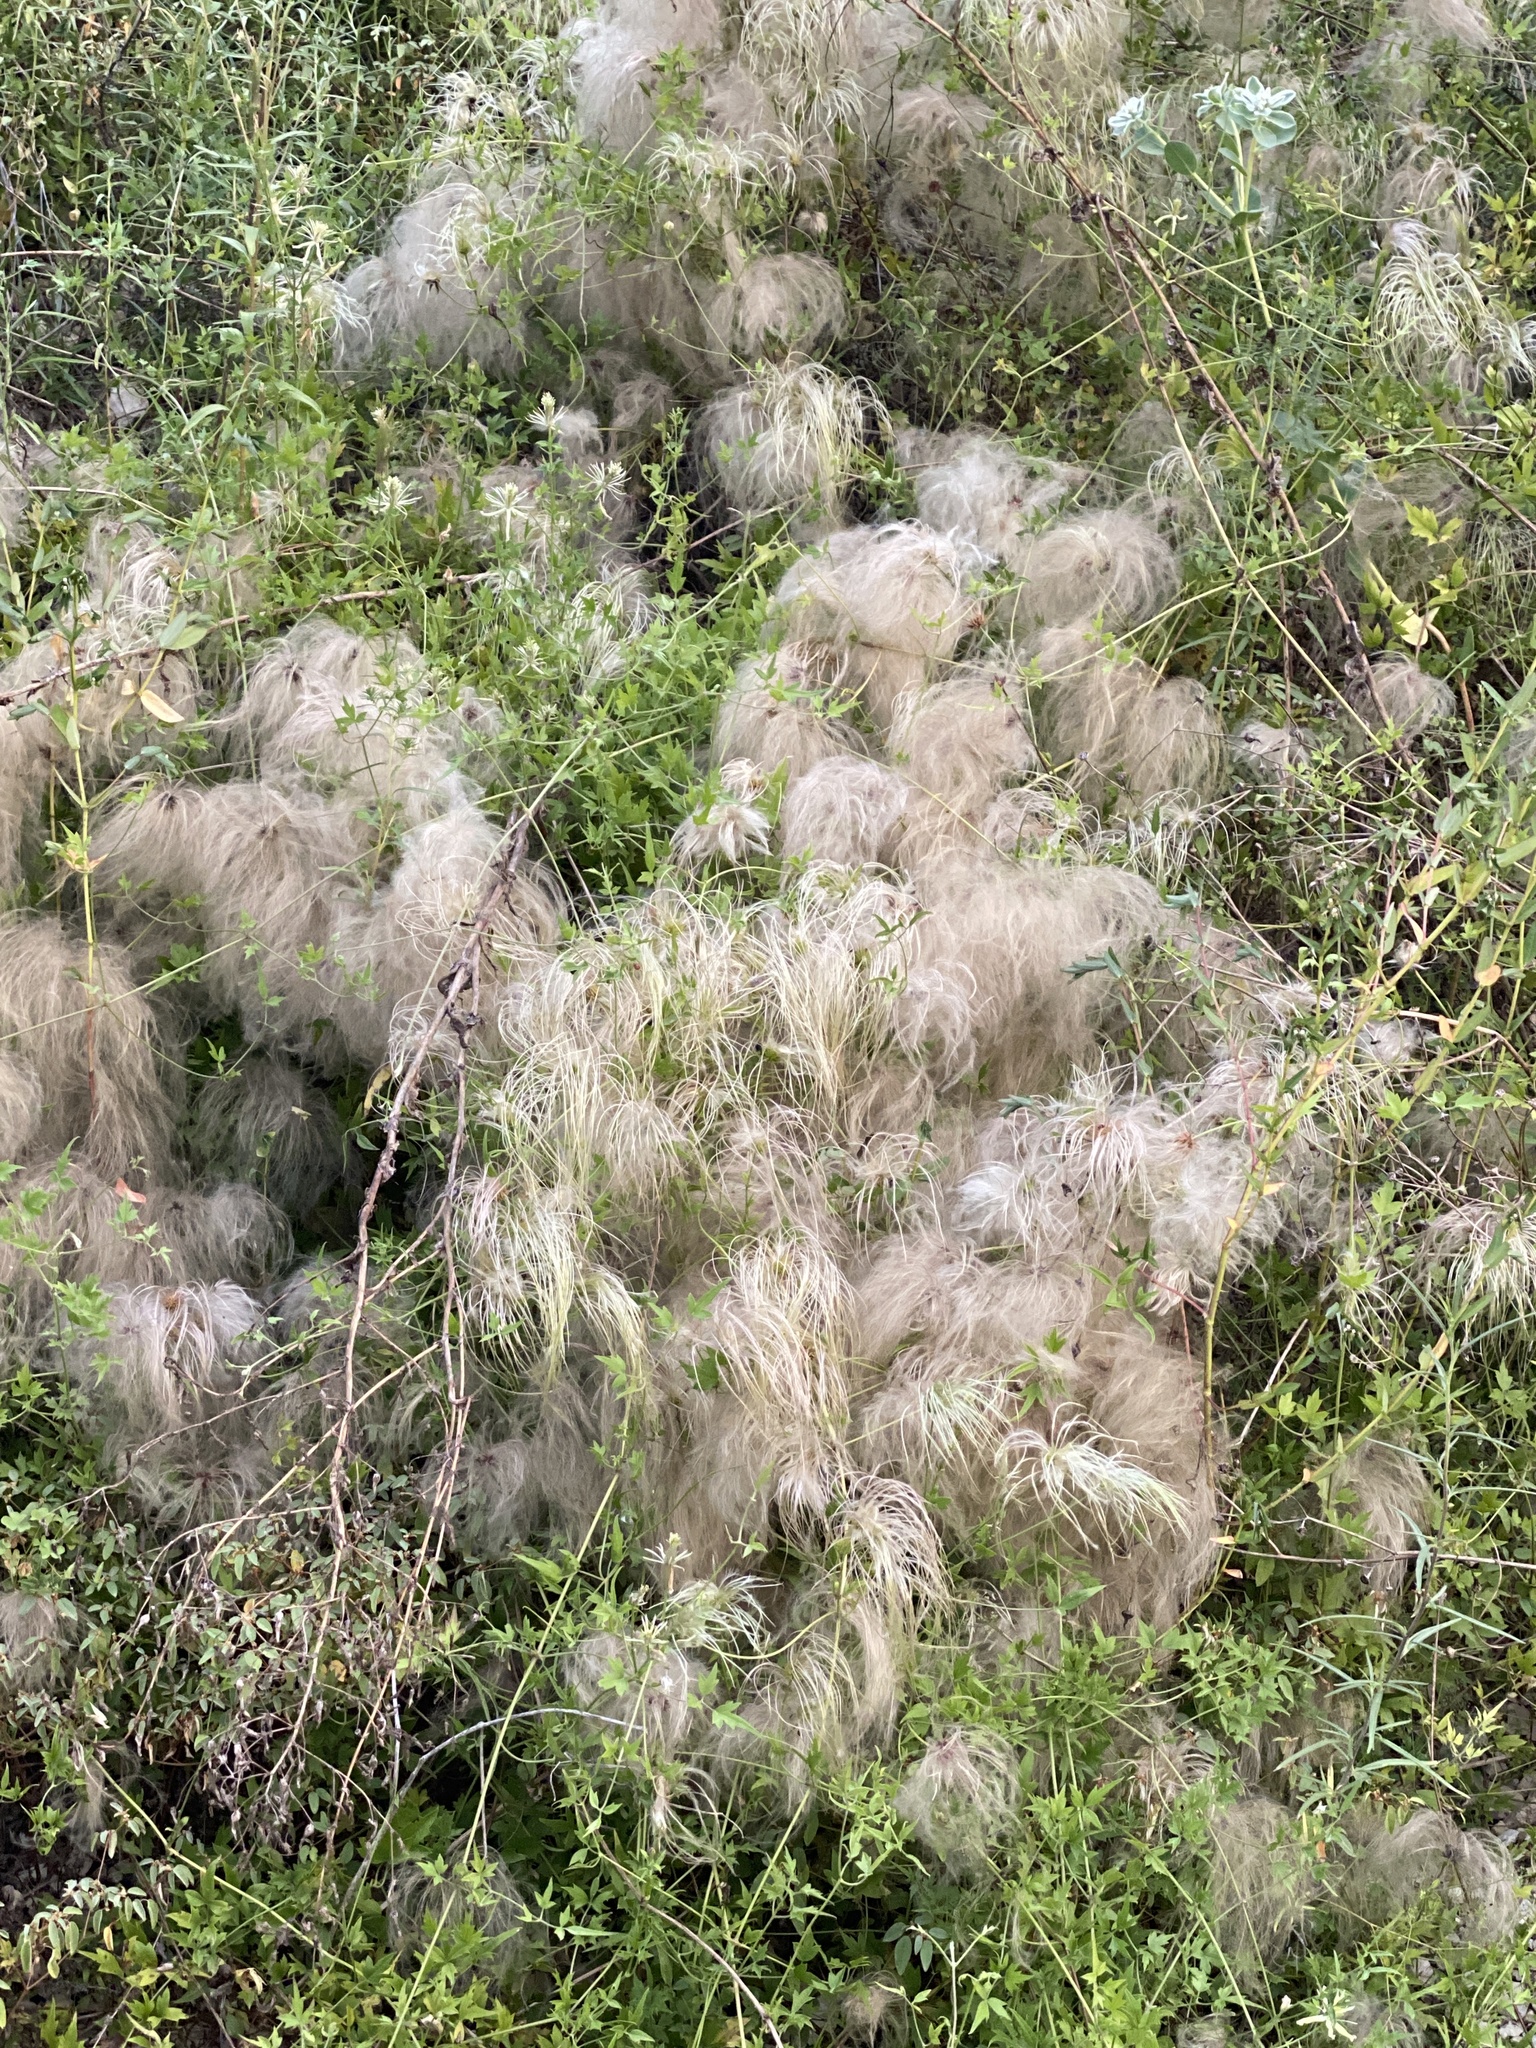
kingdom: Plantae
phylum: Tracheophyta
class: Magnoliopsida
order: Ranunculales
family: Ranunculaceae
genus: Clematis
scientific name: Clematis drummondii
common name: Texas virgin's bower
